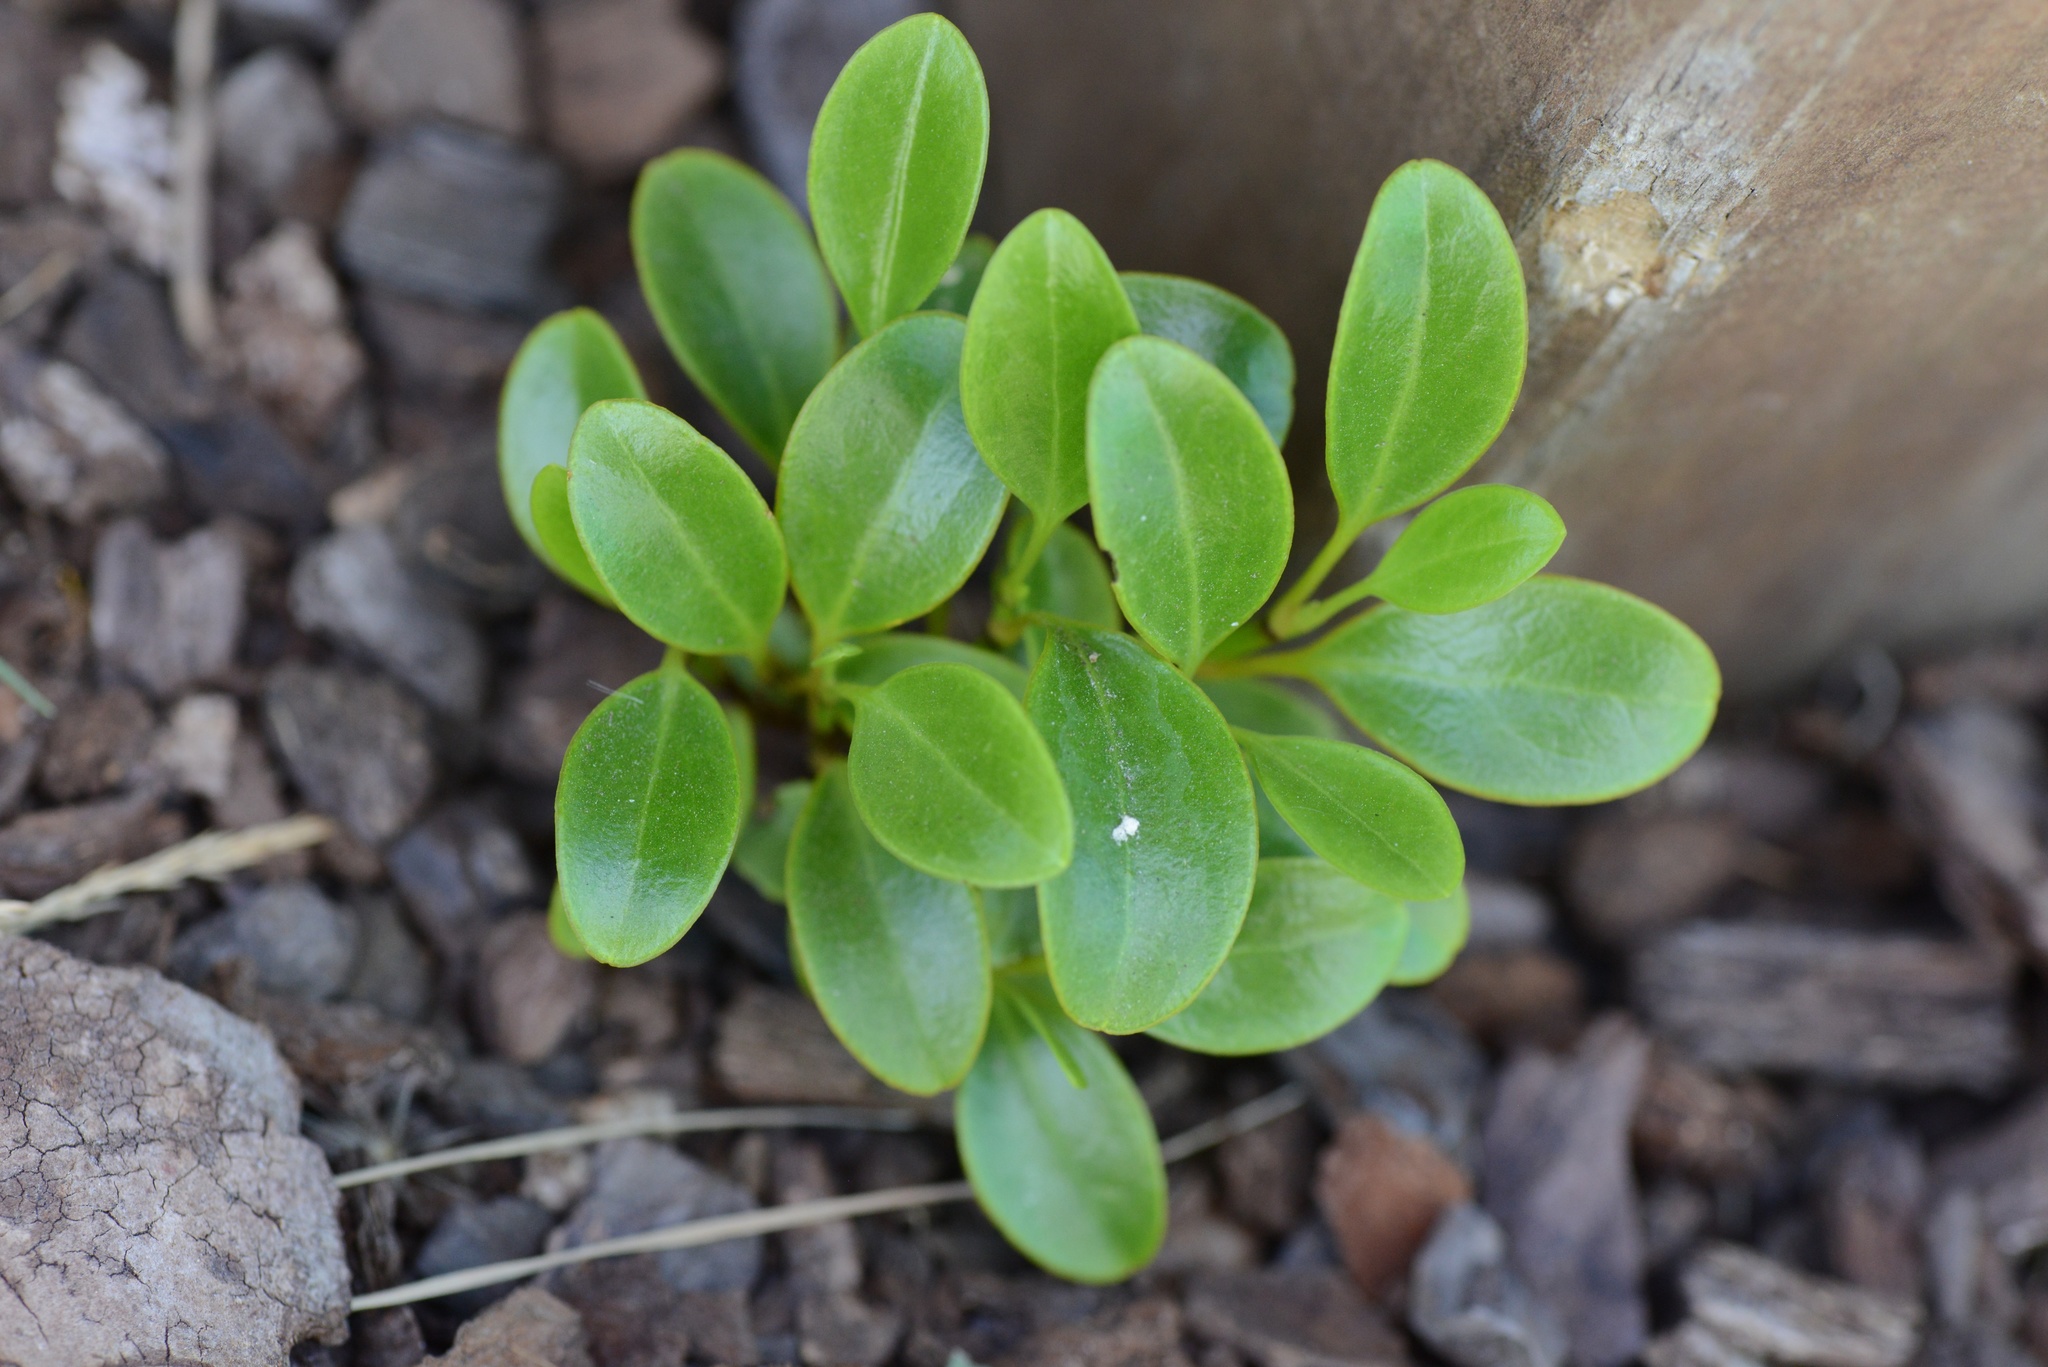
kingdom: Plantae
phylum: Tracheophyta
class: Magnoliopsida
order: Apiales
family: Griseliniaceae
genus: Griselinia
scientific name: Griselinia littoralis
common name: New zealand broadleaf
